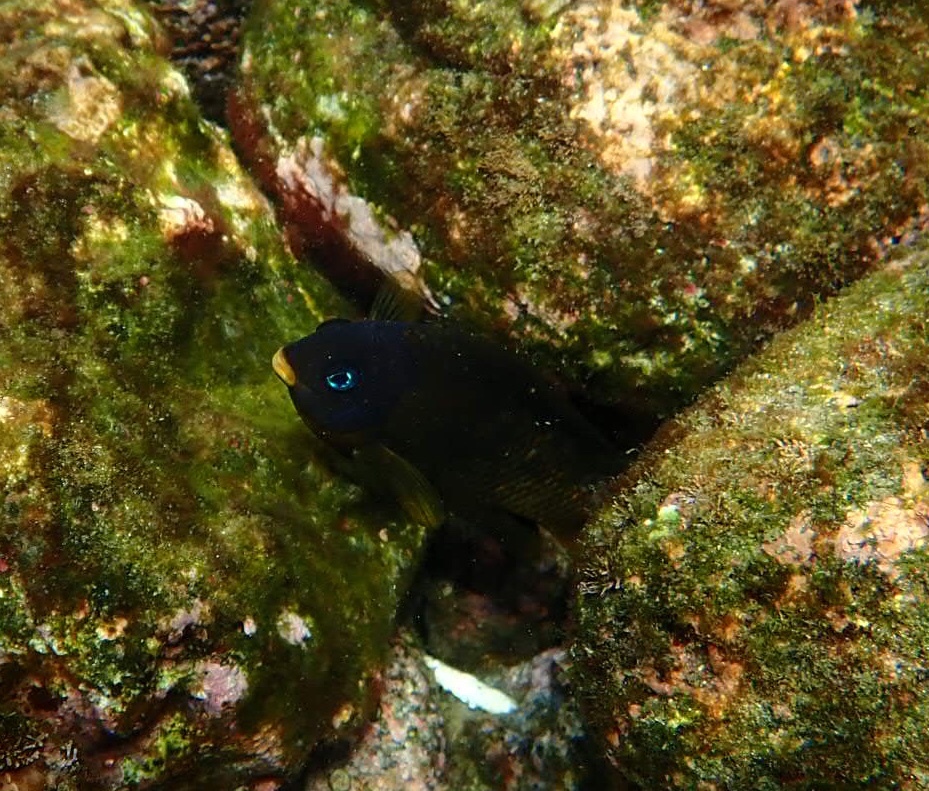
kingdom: Animalia
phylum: Chordata
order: Perciformes
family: Pomacentridae
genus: Stegastes
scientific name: Stegastes arcifrons
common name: Galapagos gregory
